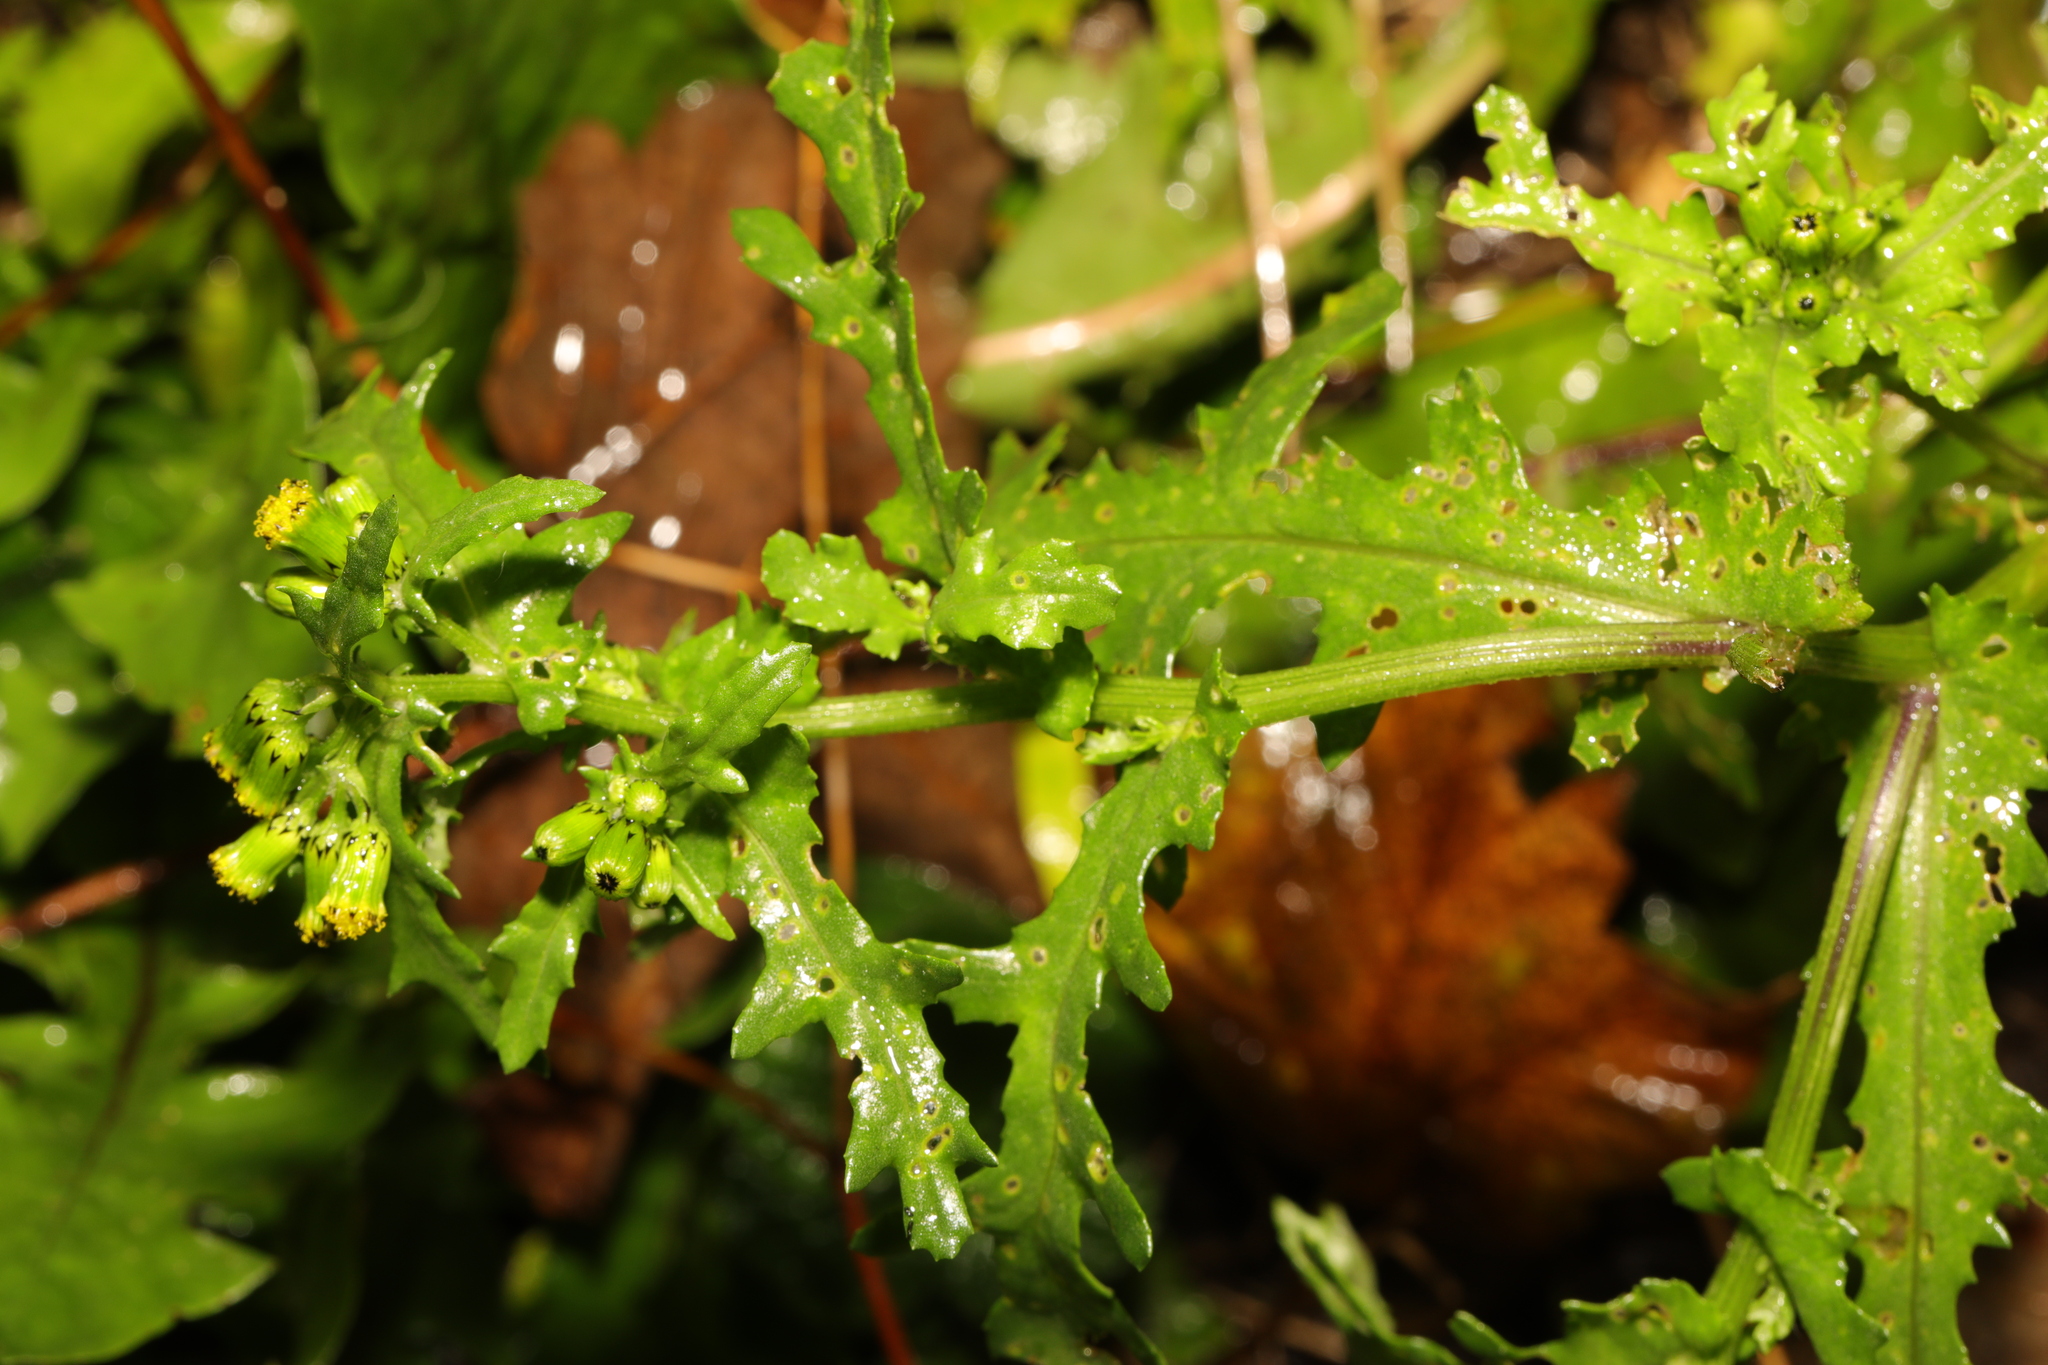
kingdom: Plantae
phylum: Tracheophyta
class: Magnoliopsida
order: Asterales
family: Asteraceae
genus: Senecio
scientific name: Senecio vulgaris
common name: Old-man-in-the-spring
